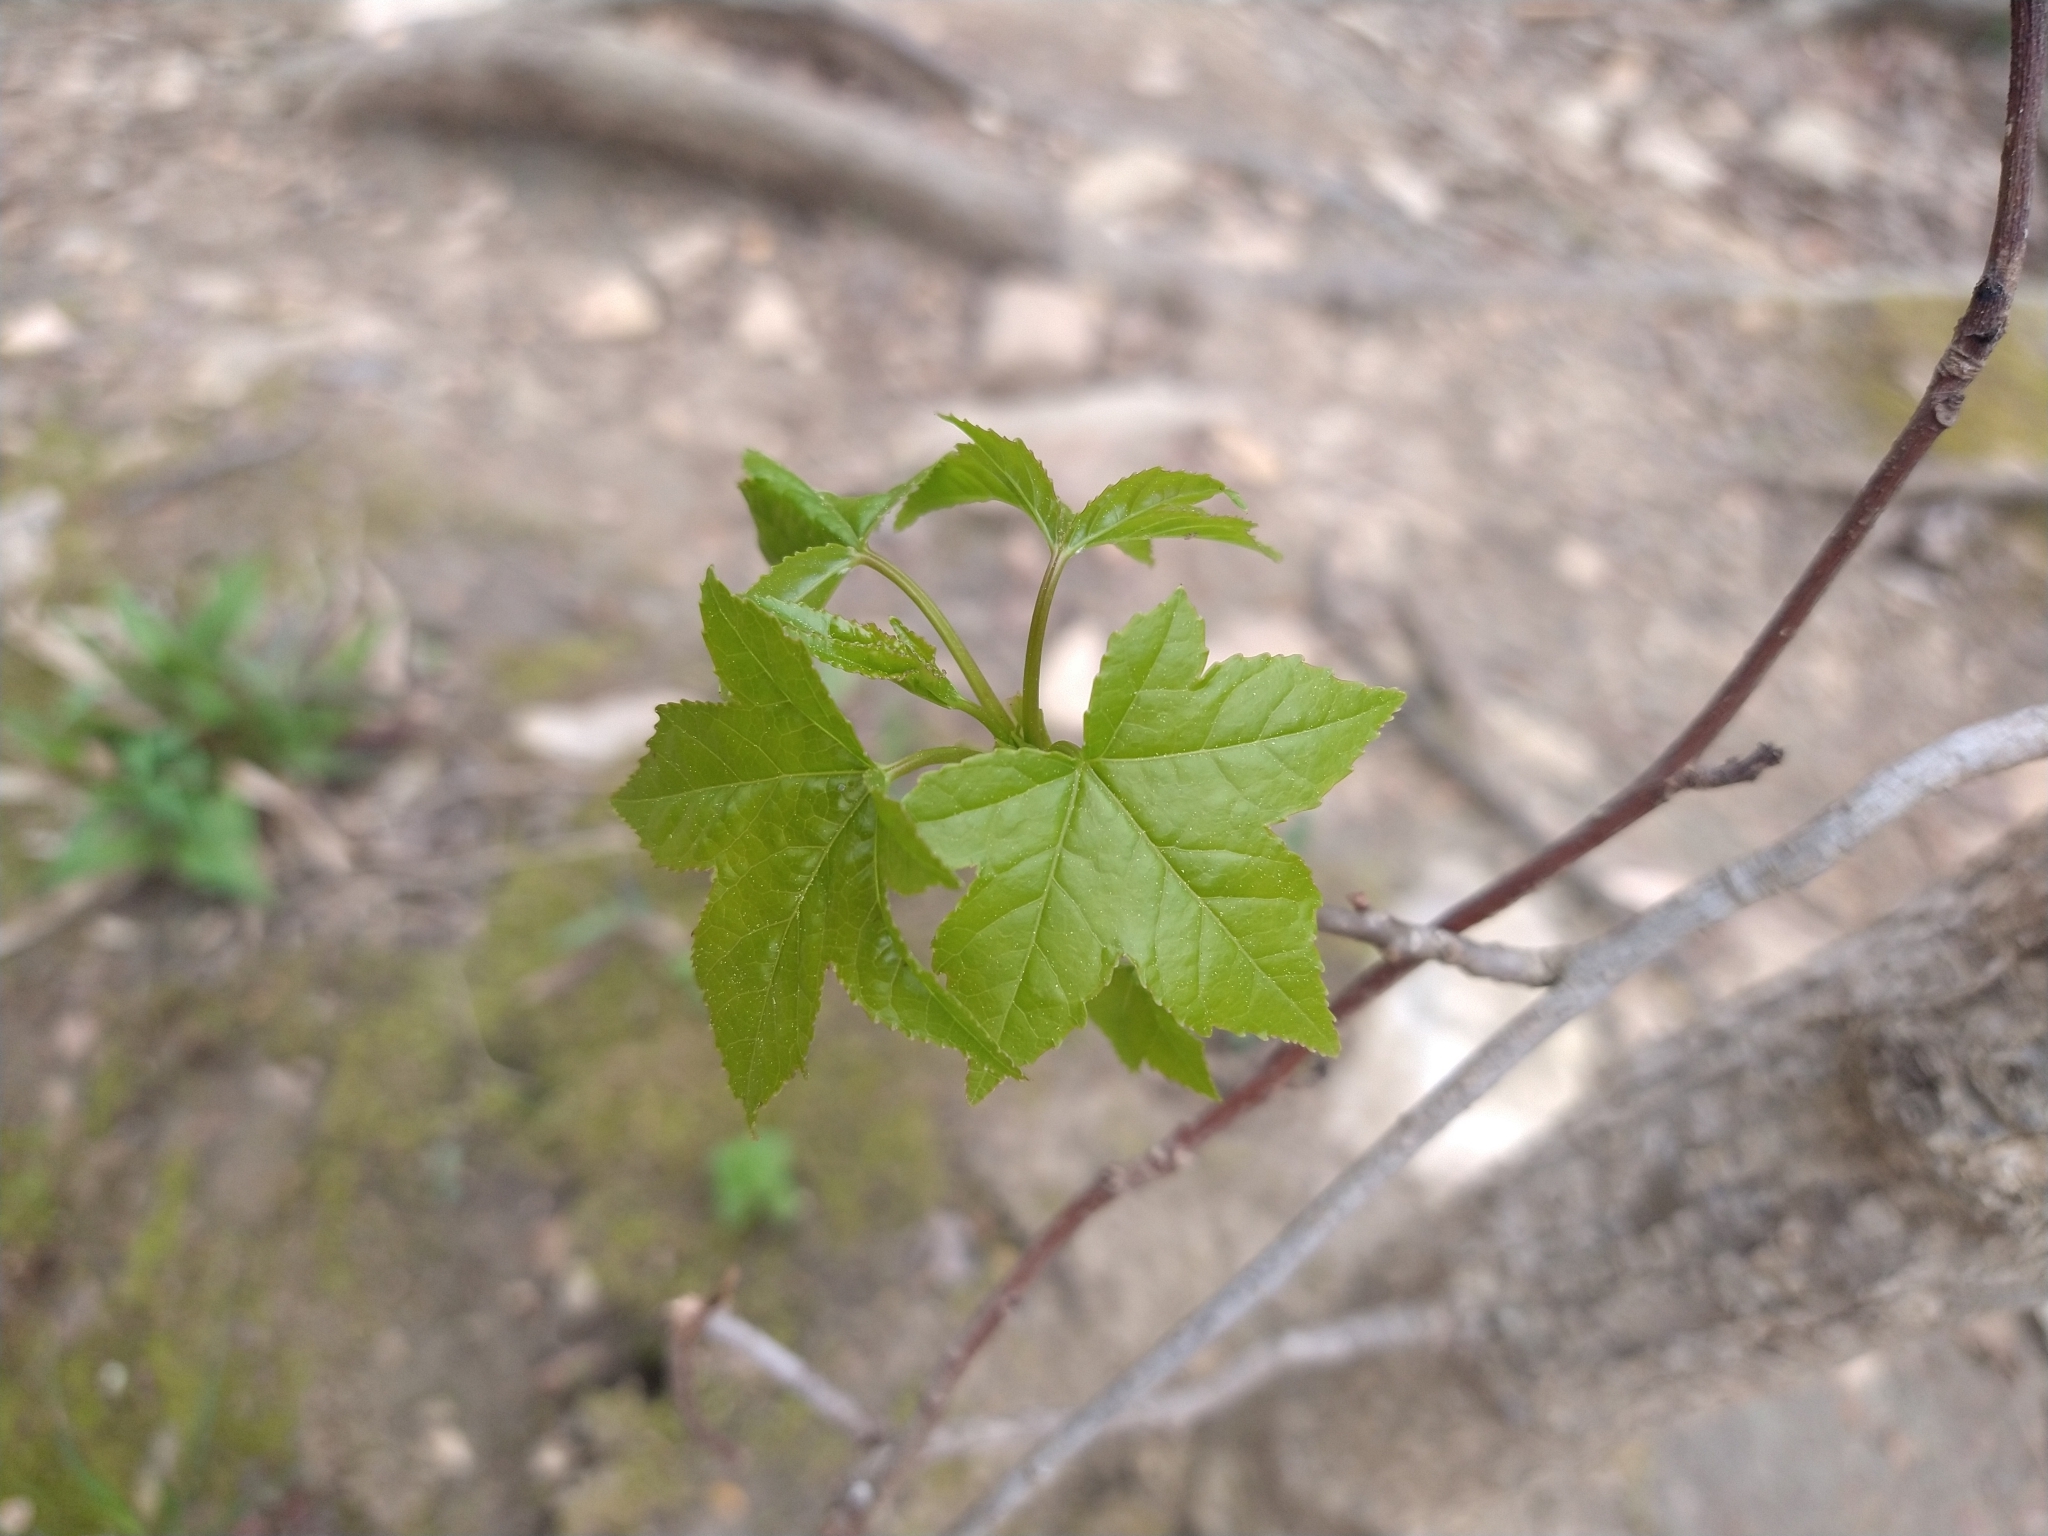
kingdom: Plantae
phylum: Tracheophyta
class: Magnoliopsida
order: Saxifragales
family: Altingiaceae
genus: Liquidambar
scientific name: Liquidambar styraciflua
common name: Sweet gum
